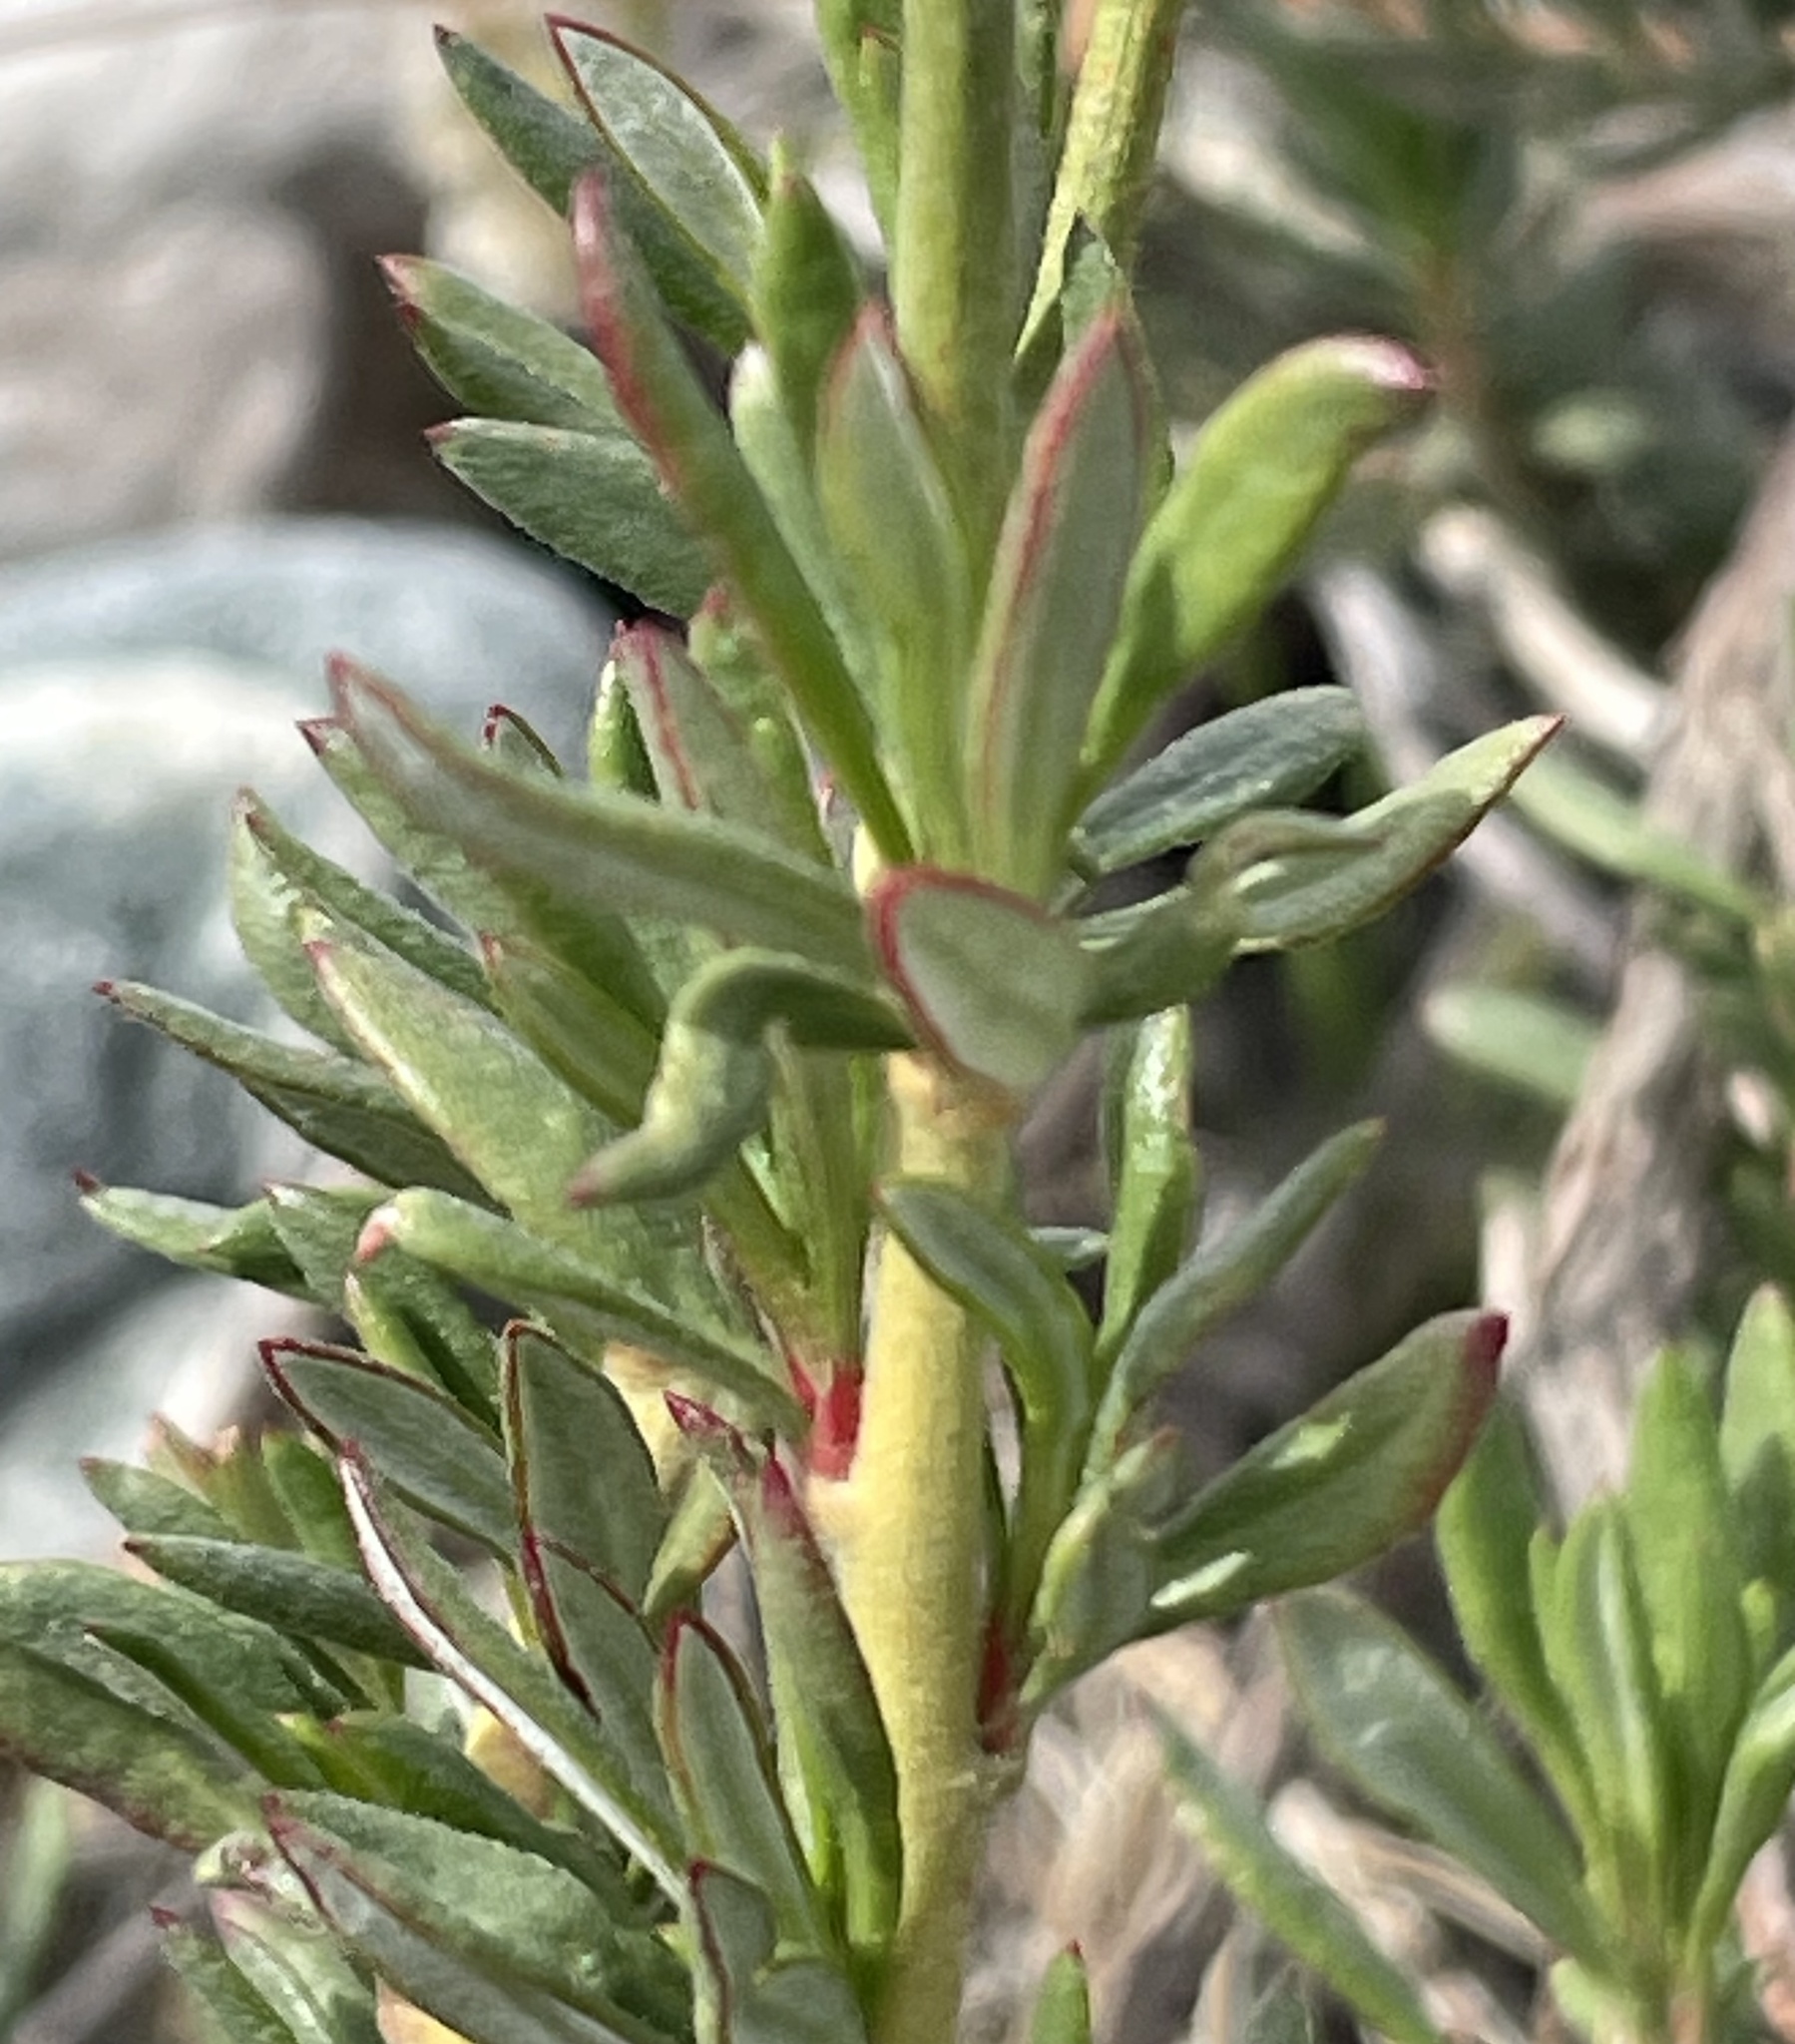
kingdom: Plantae
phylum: Tracheophyta
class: Magnoliopsida
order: Caryophyllales
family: Polygonaceae
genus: Eriogonum
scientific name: Eriogonum fasciculatum
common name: California wild buckwheat
